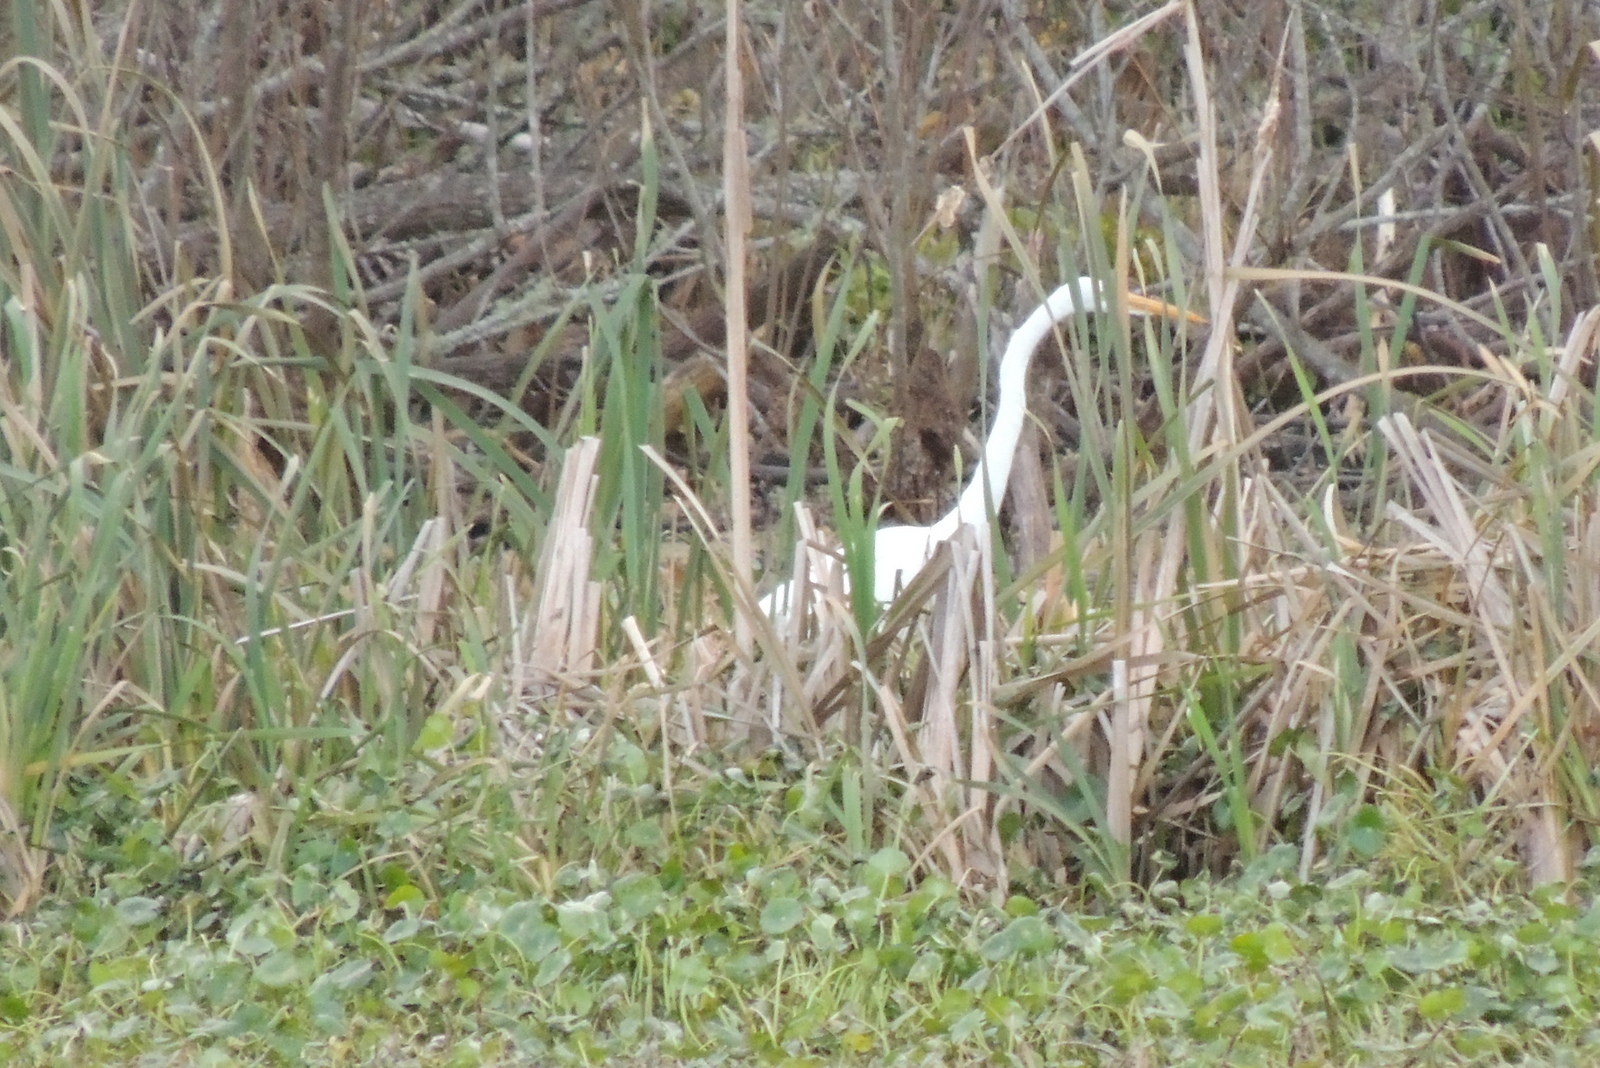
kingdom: Animalia
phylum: Chordata
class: Aves
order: Pelecaniformes
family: Ardeidae
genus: Ardea
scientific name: Ardea alba
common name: Great egret
